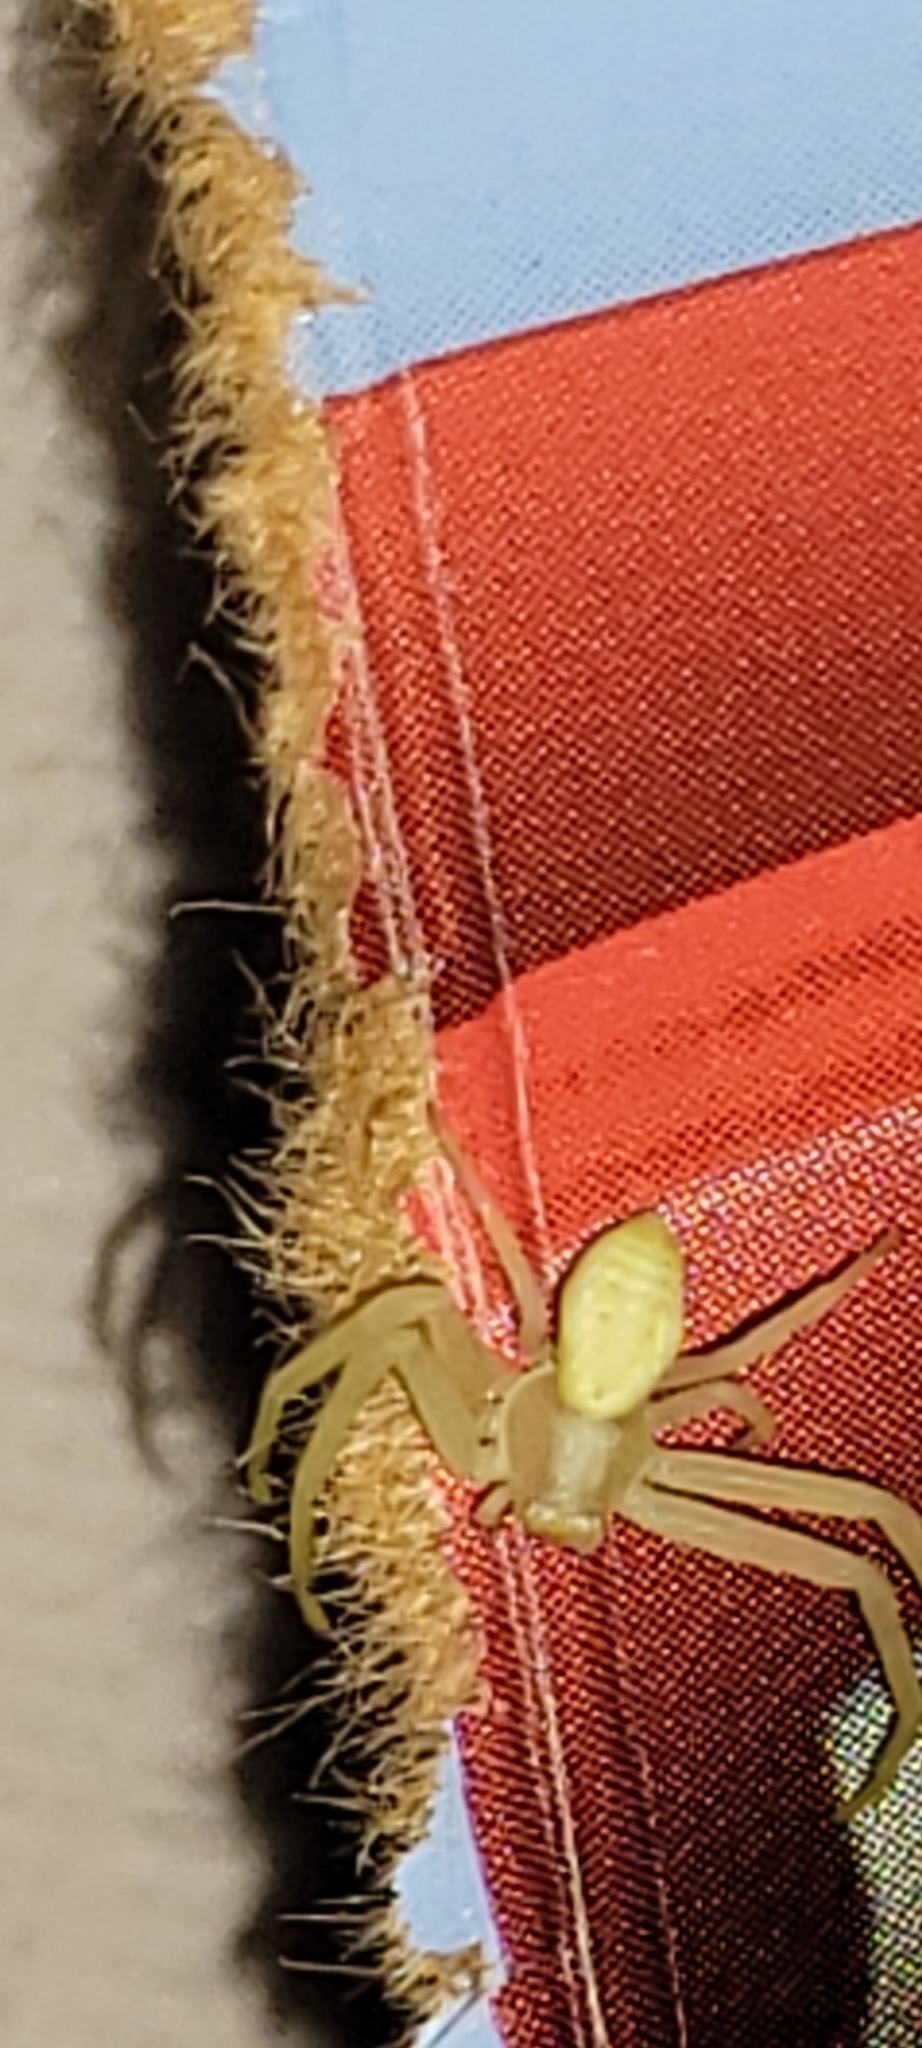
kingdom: Animalia
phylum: Arthropoda
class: Arachnida
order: Araneae
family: Thomisidae
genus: Misumessus
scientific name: Misumessus oblongus
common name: American green crab spider
